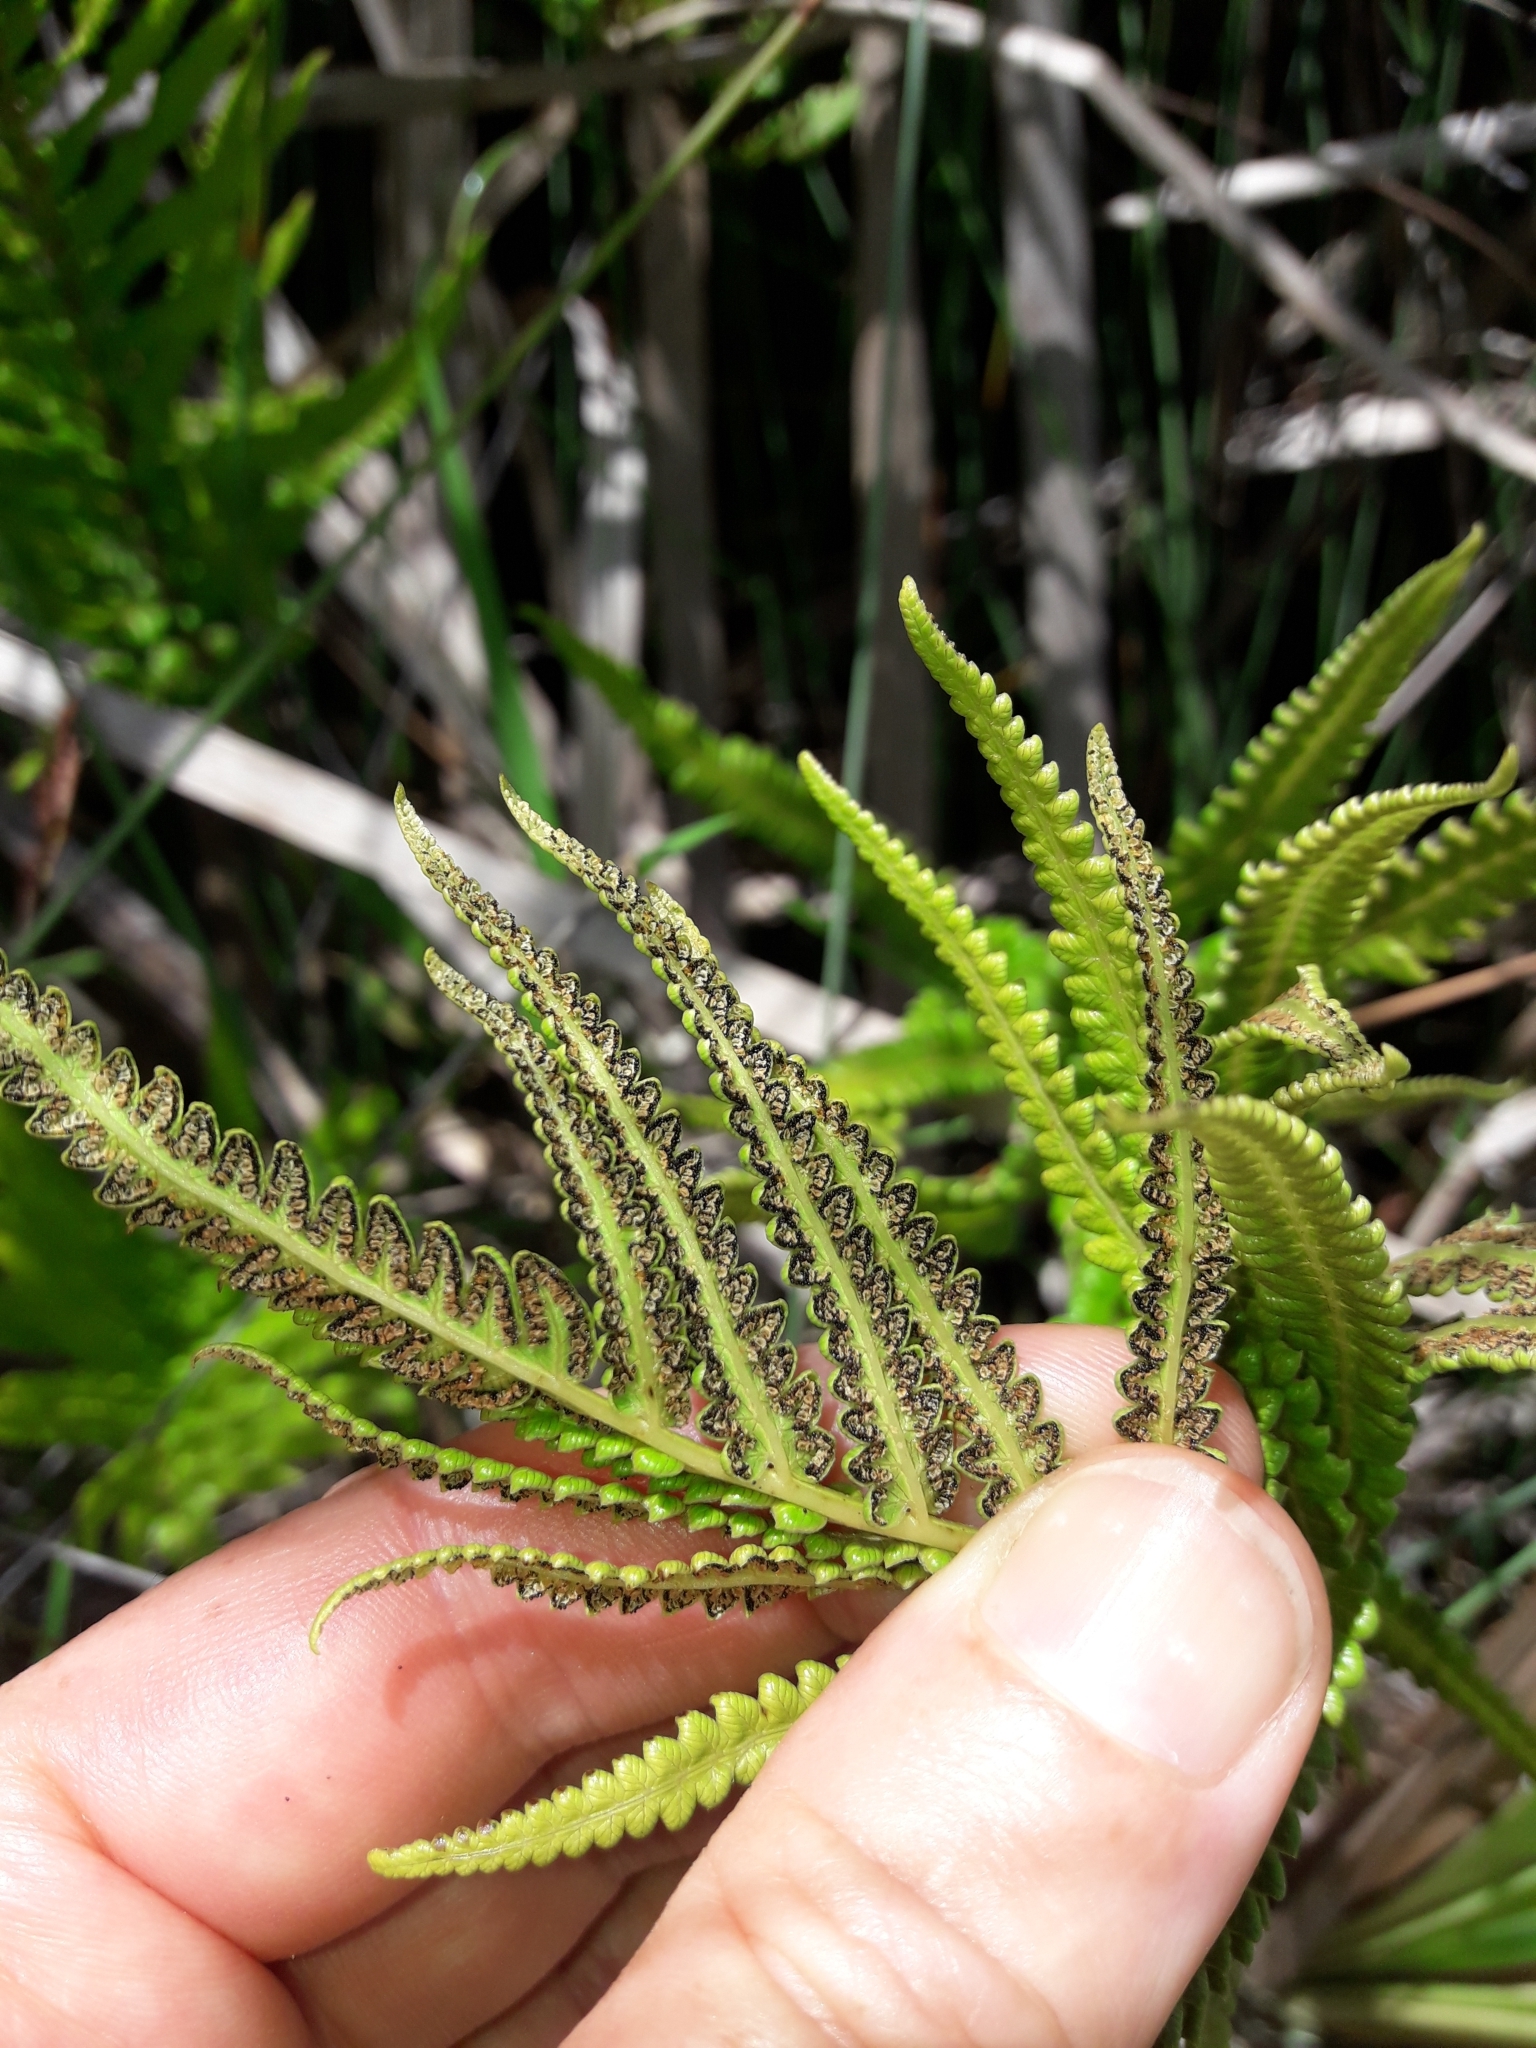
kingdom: Plantae
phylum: Tracheophyta
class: Polypodiopsida
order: Polypodiales
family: Thelypteridaceae
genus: Cyclosorus
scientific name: Cyclosorus interruptus
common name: Neke fern
